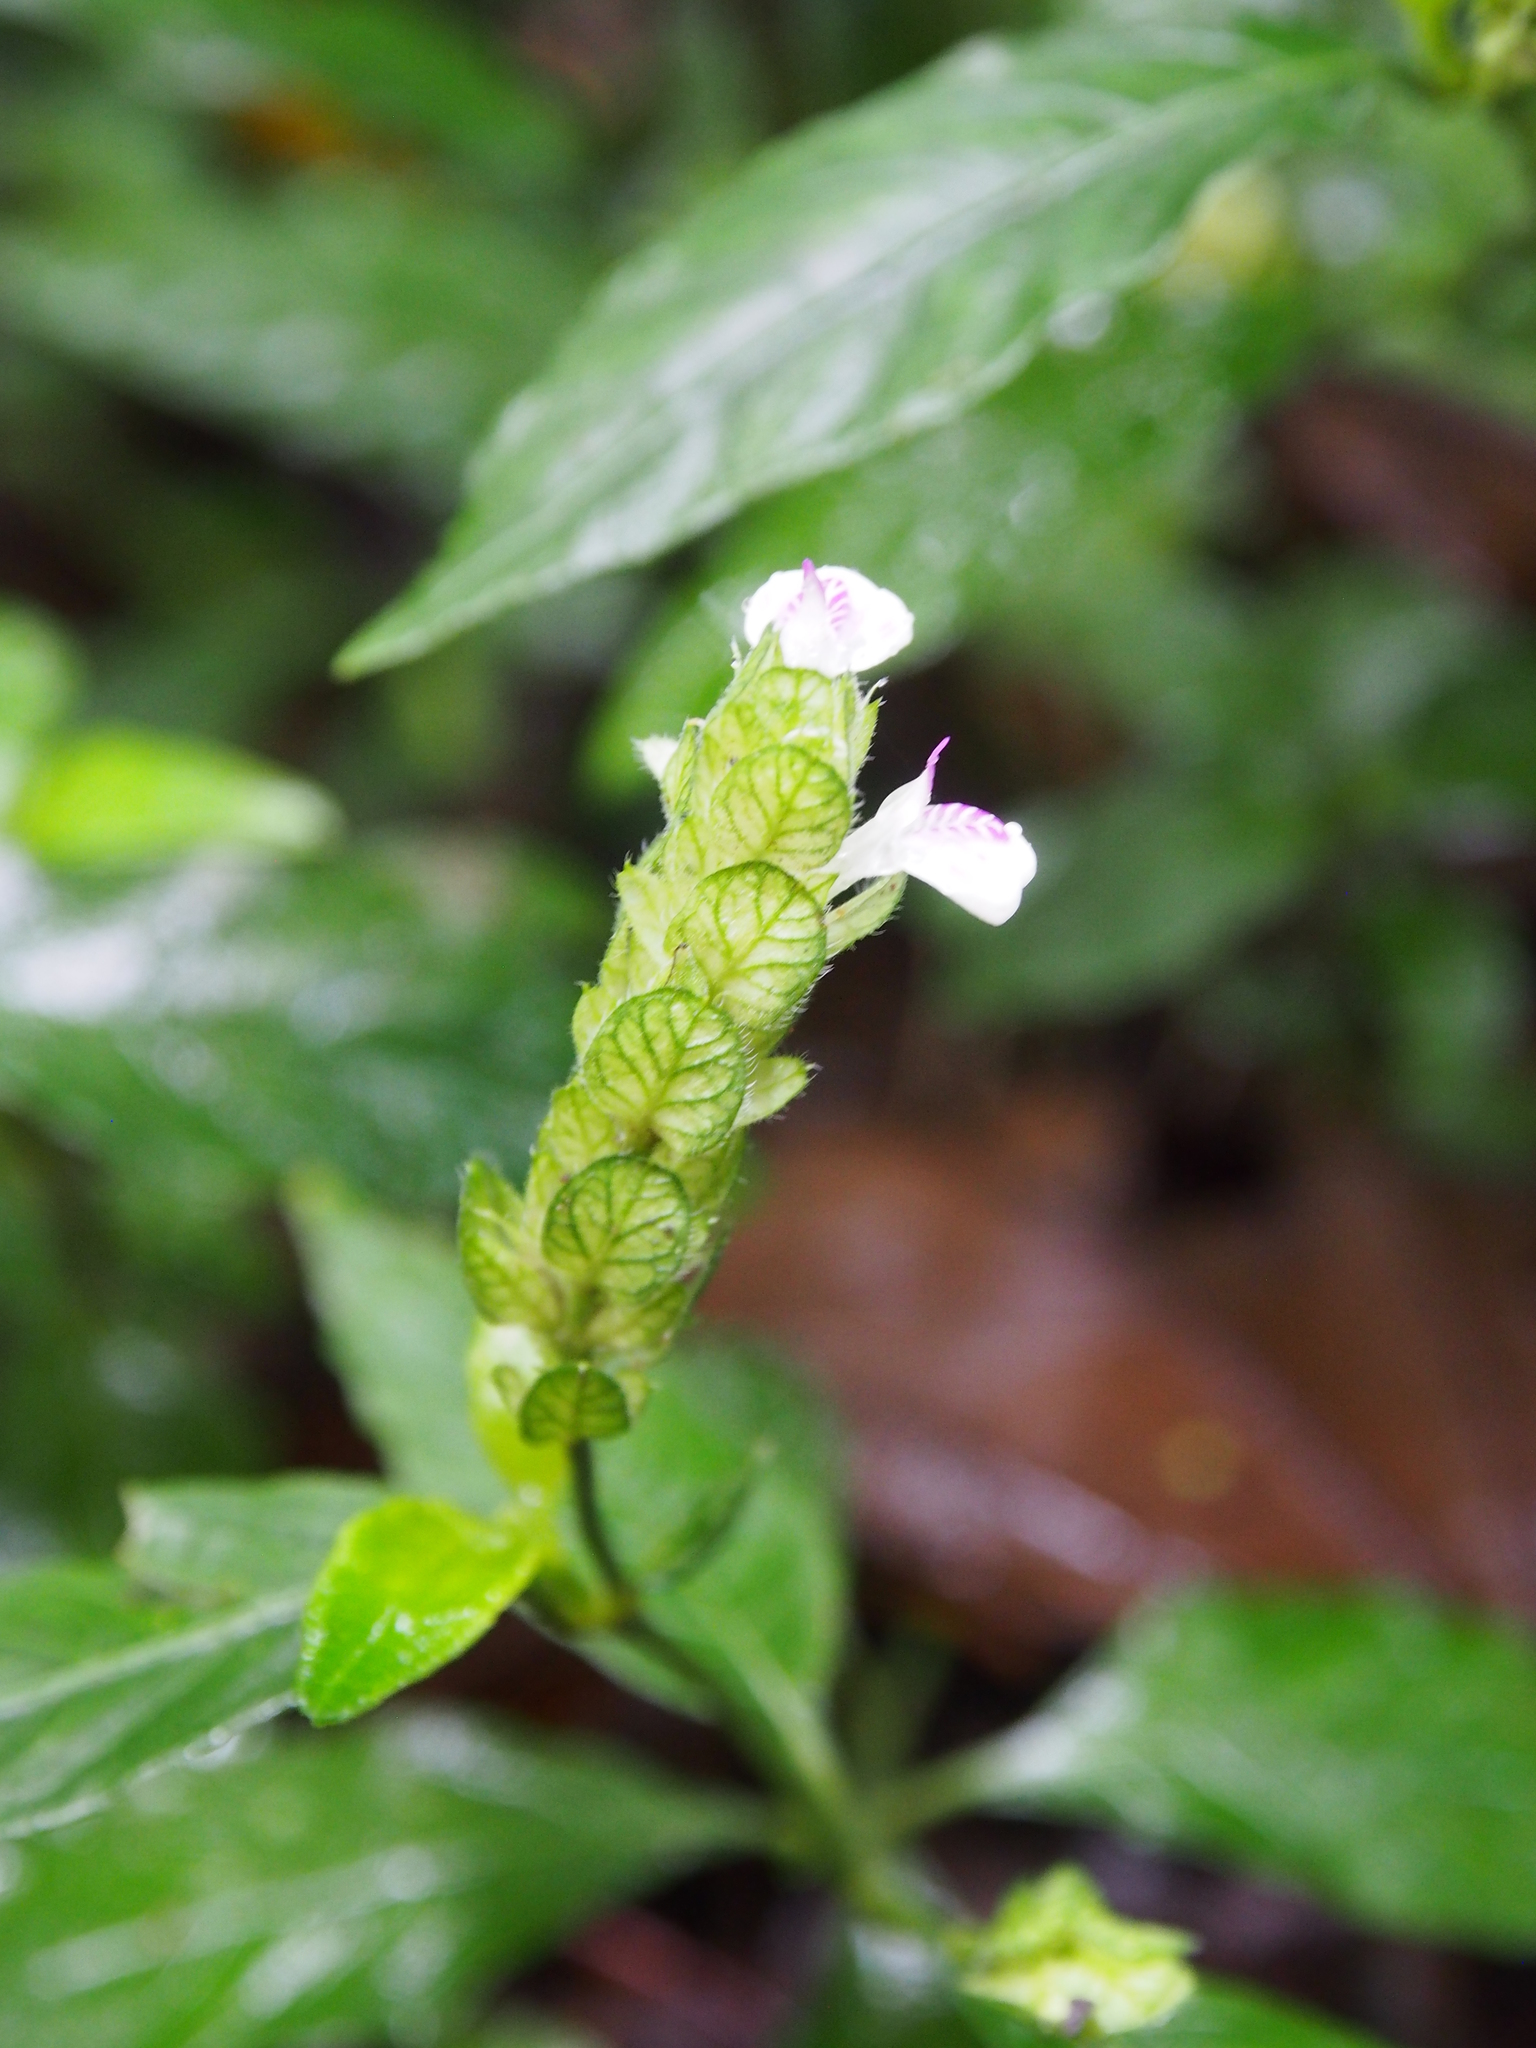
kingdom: Plantae
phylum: Tracheophyta
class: Magnoliopsida
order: Lamiales
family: Acanthaceae
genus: Justicia
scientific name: Justicia valerioi
